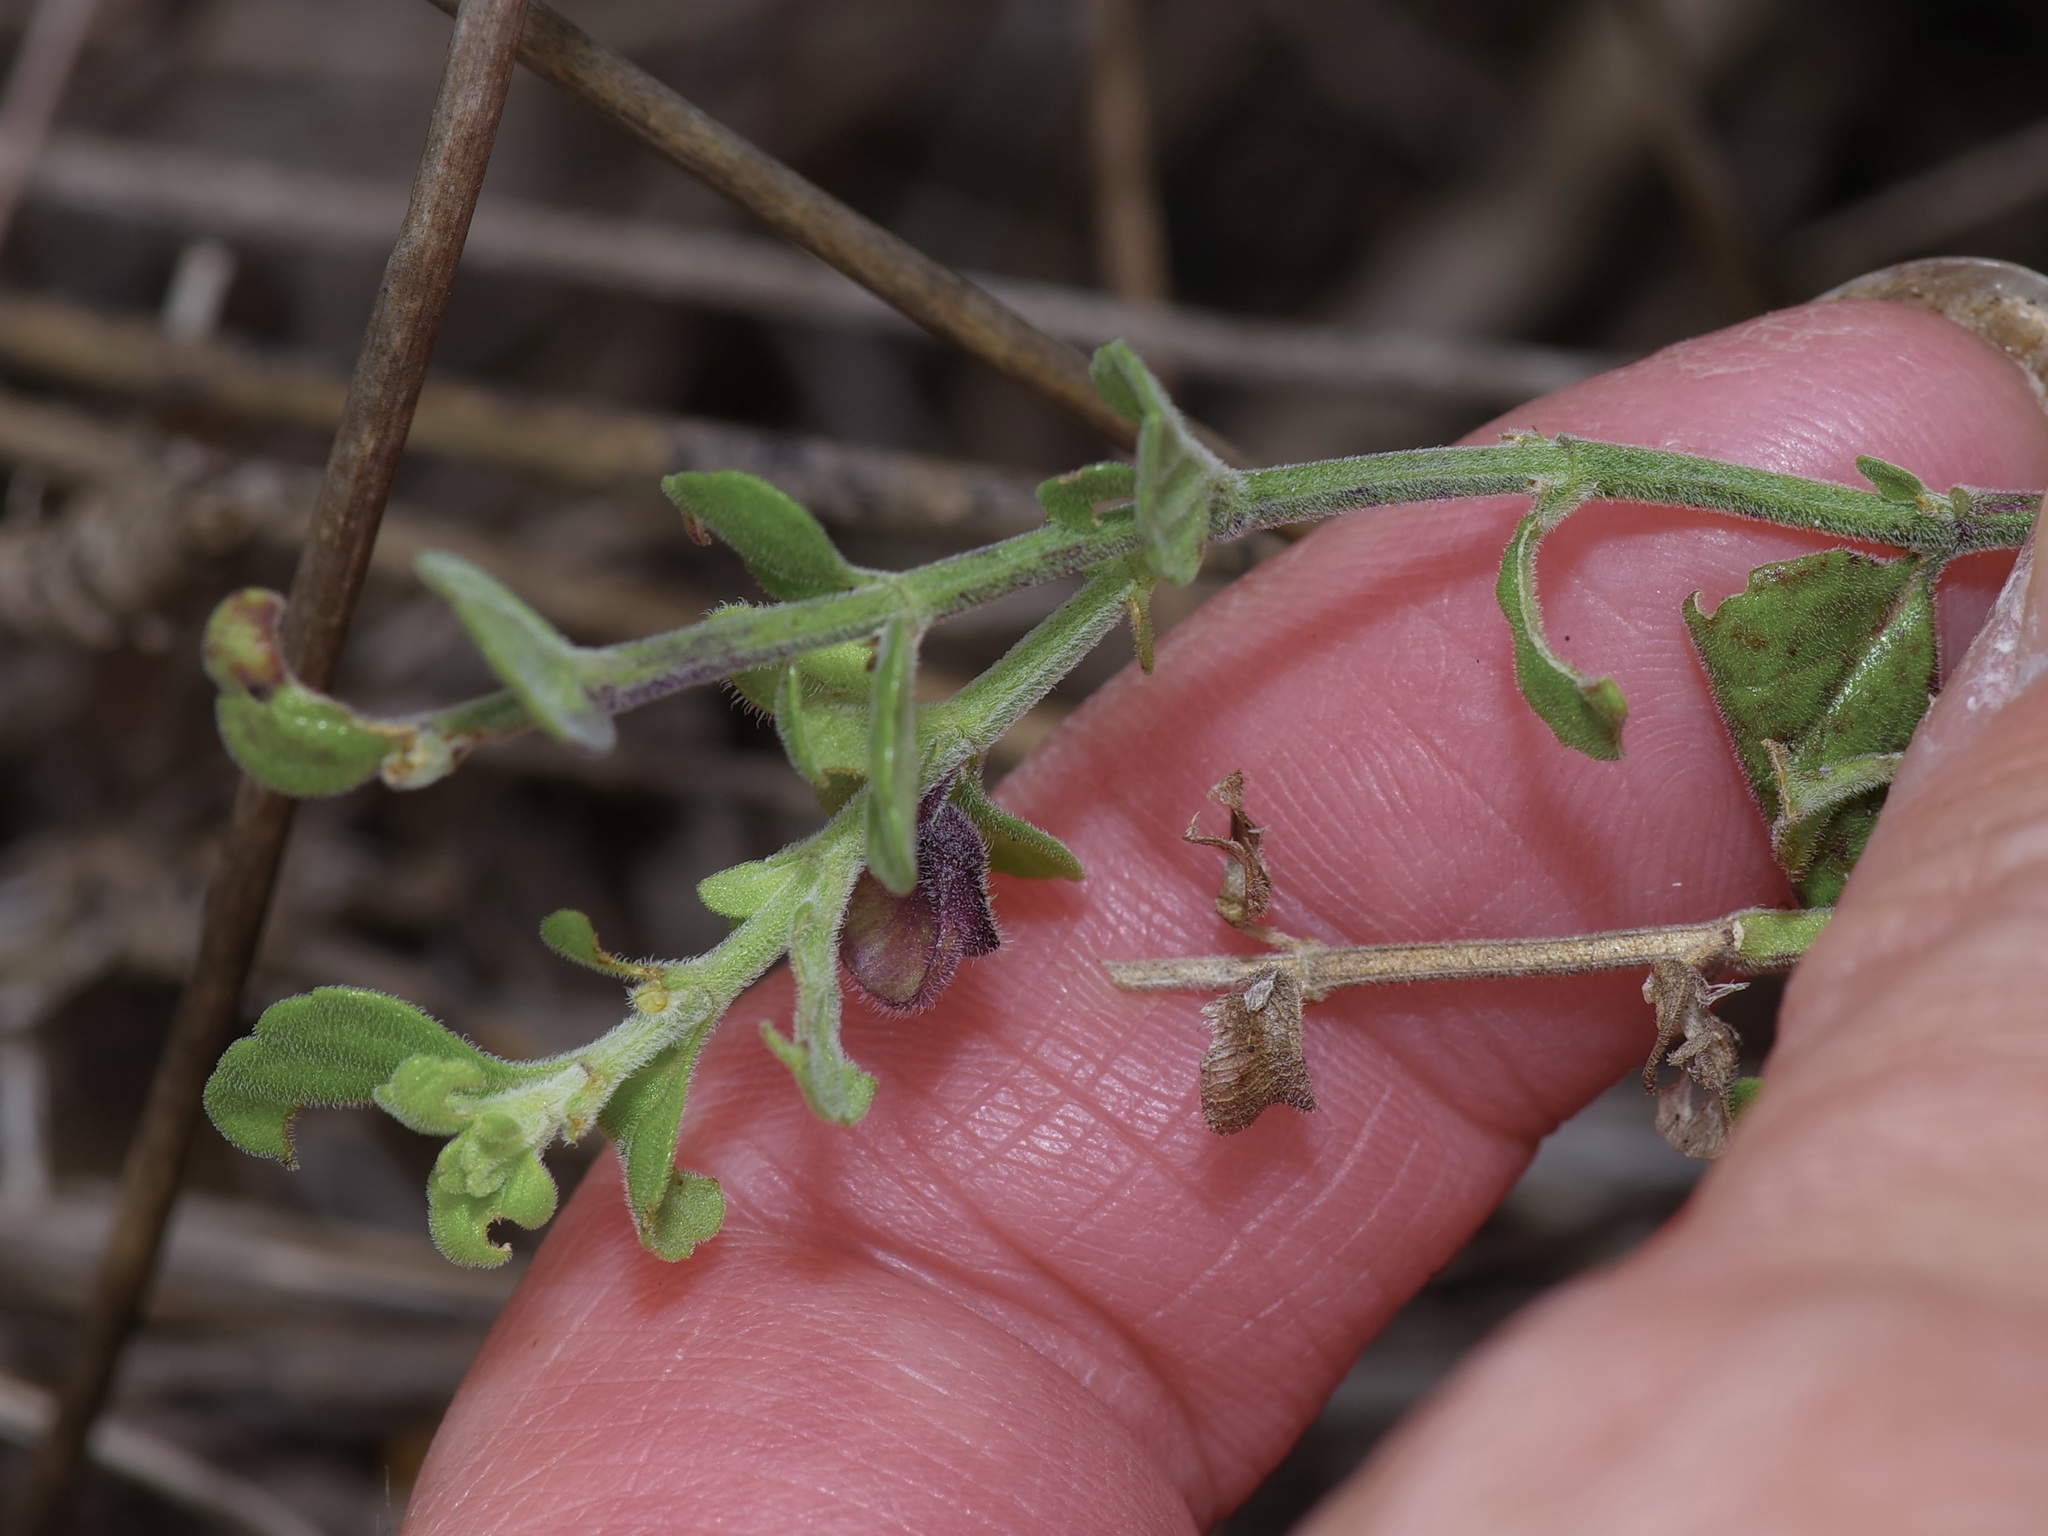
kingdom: Plantae
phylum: Tracheophyta
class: Magnoliopsida
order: Lamiales
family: Lamiaceae
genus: Scutellaria
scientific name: Scutellaria muriculata
